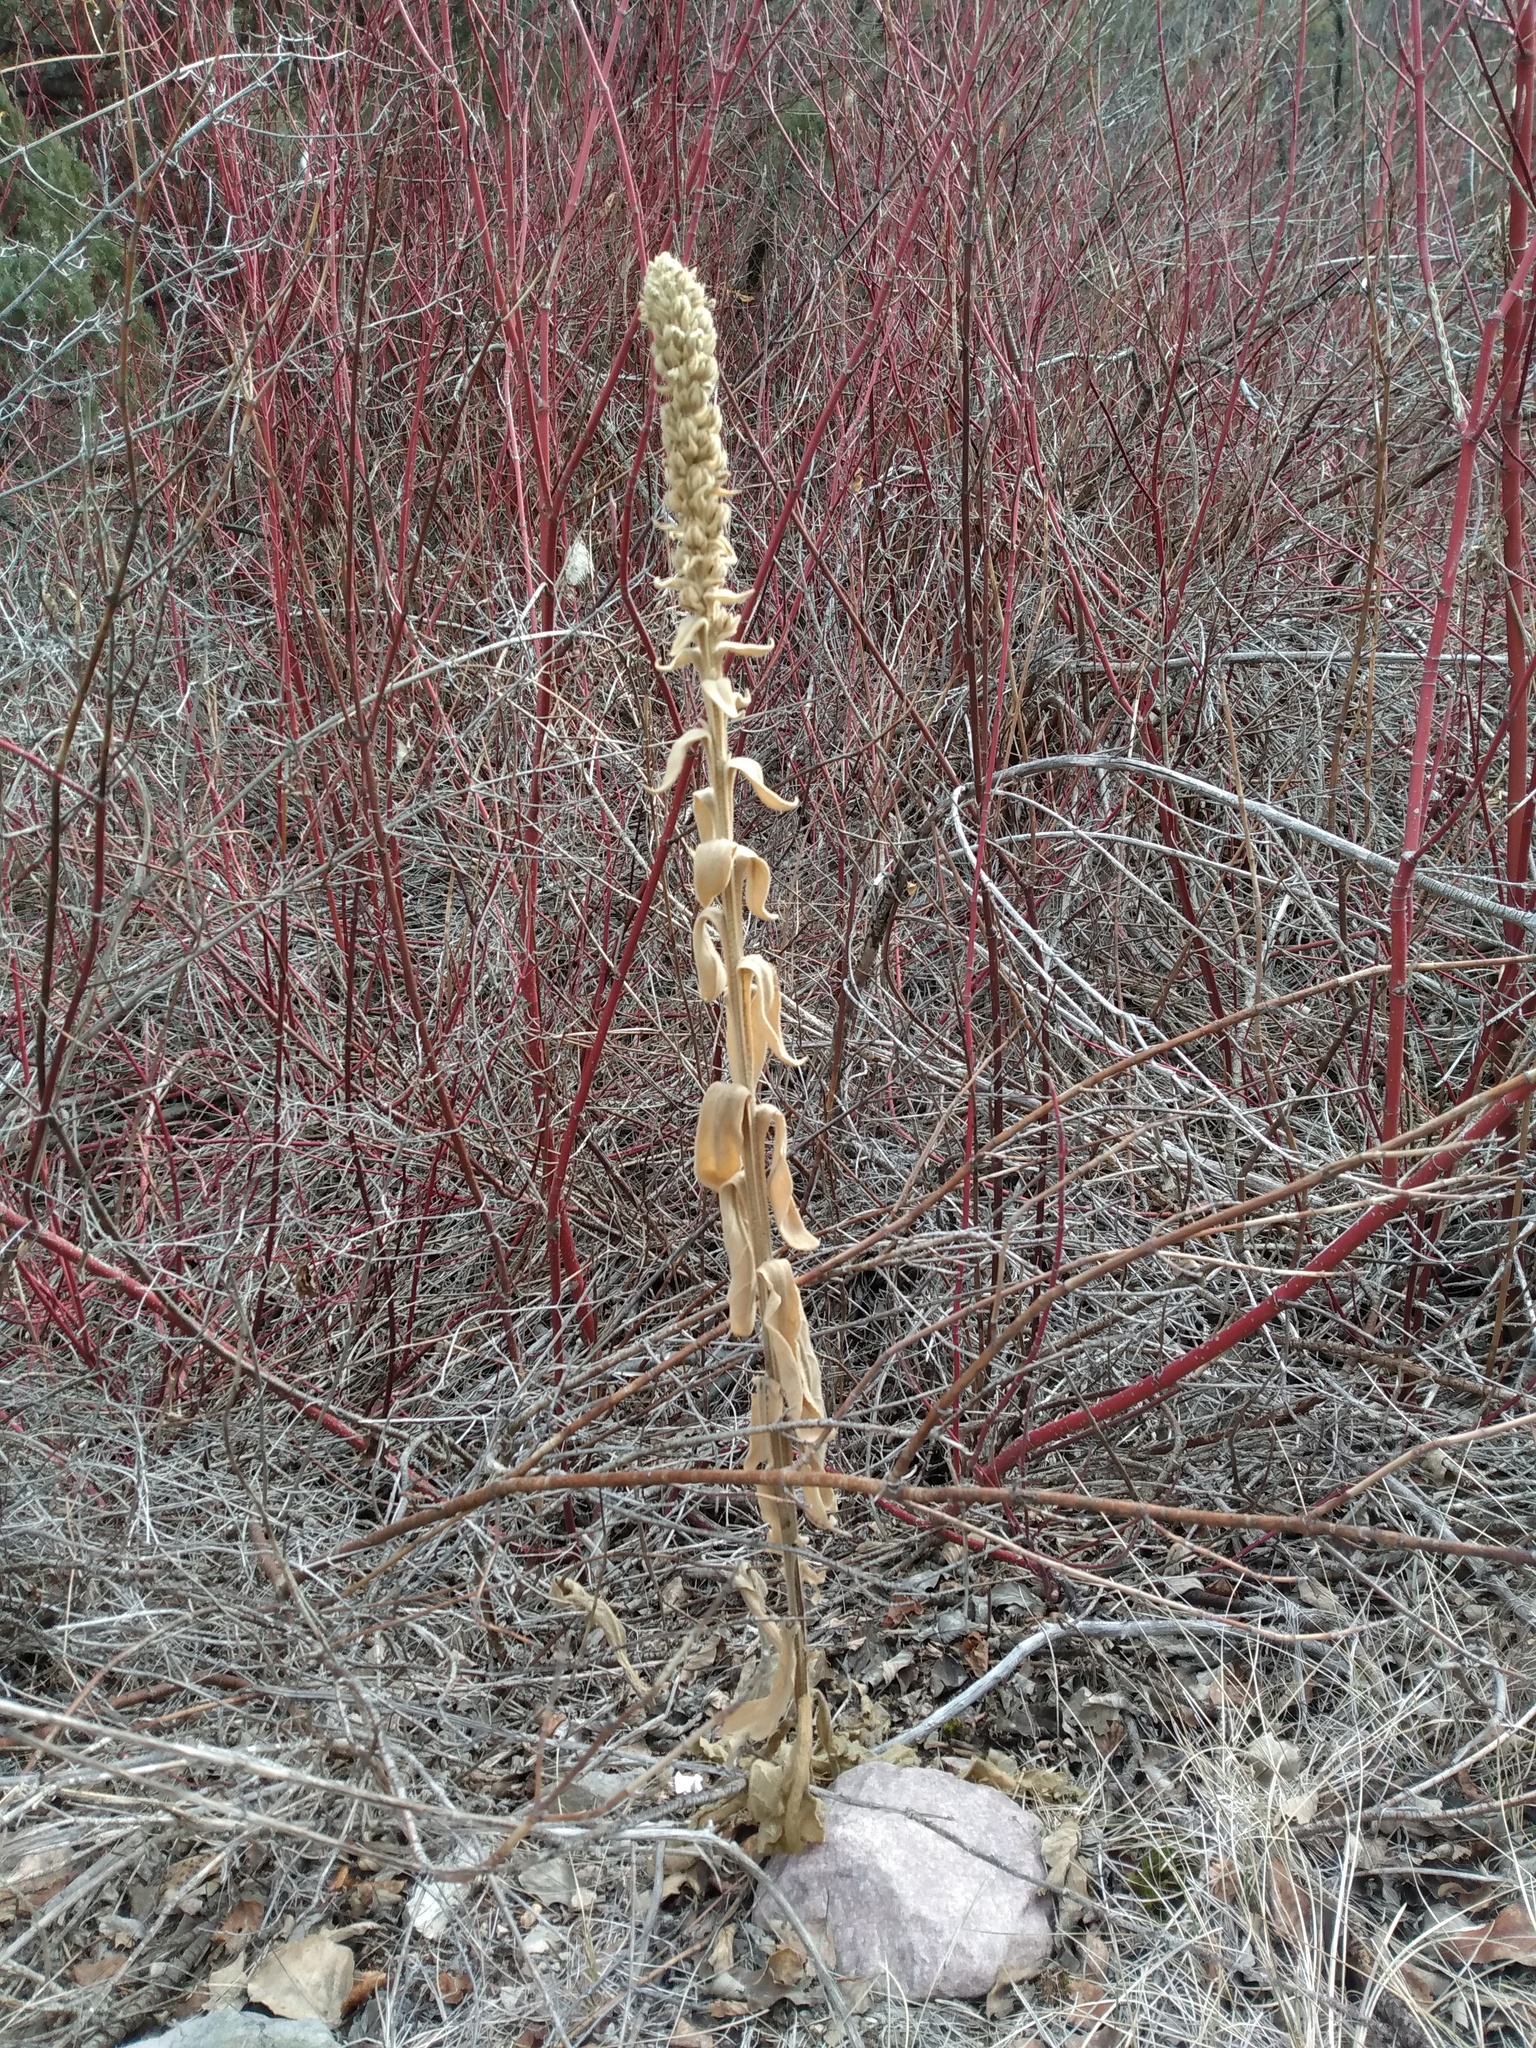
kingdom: Plantae
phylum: Tracheophyta
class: Magnoliopsida
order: Lamiales
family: Scrophulariaceae
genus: Verbascum
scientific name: Verbascum thapsus
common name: Common mullein
